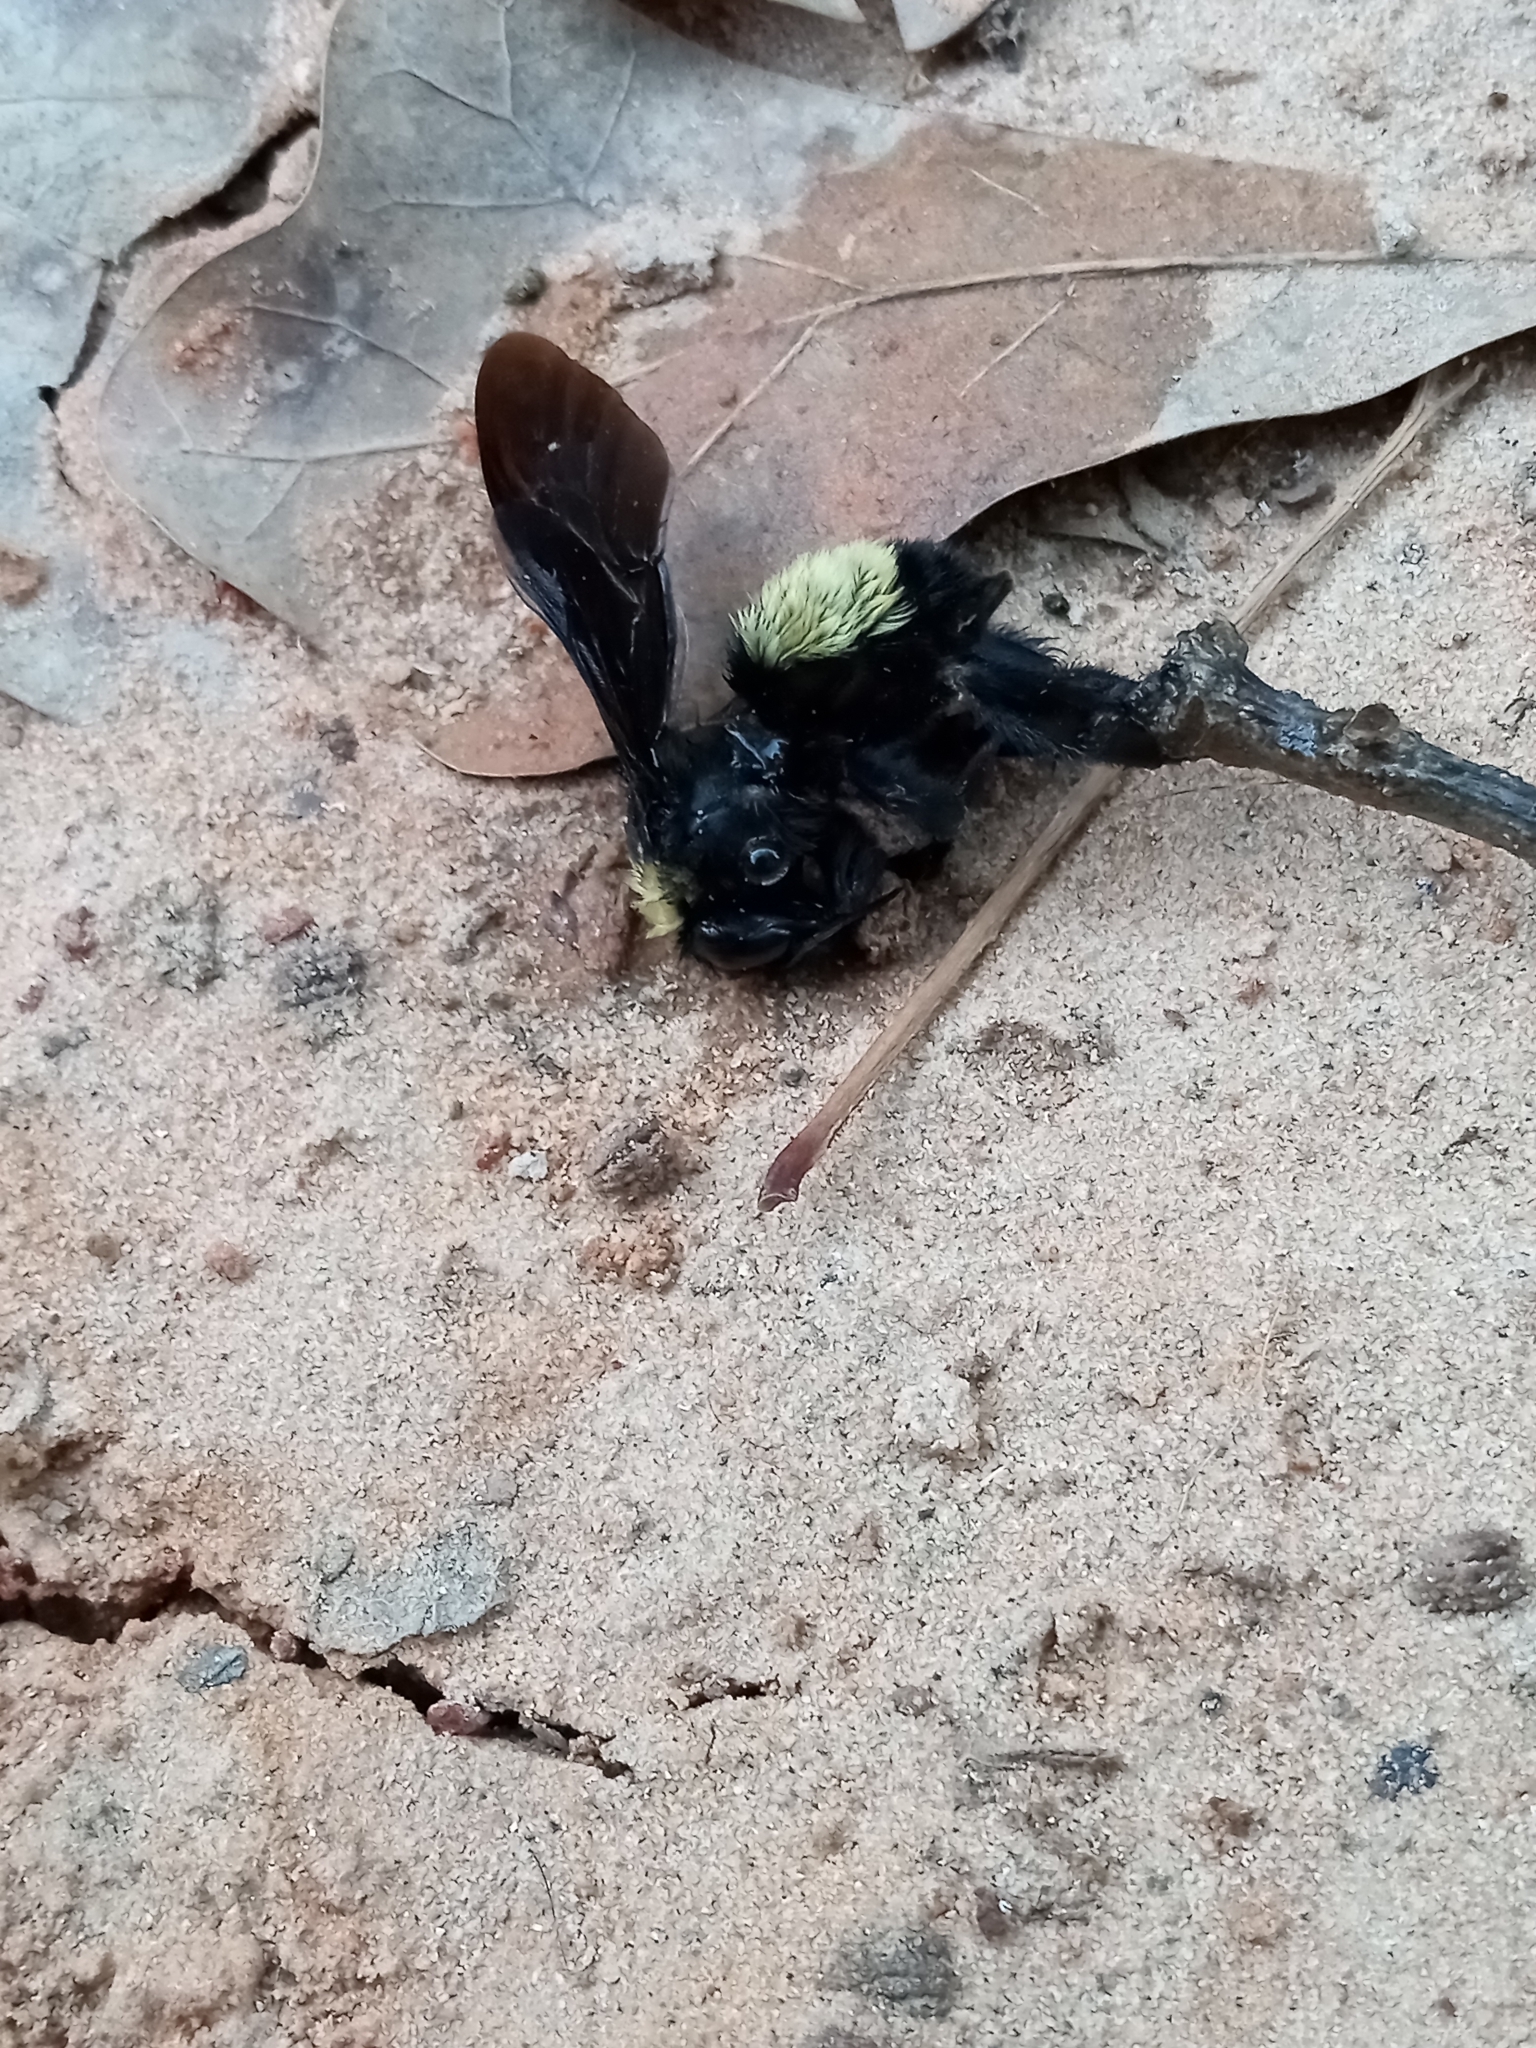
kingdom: Animalia
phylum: Arthropoda
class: Insecta
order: Hymenoptera
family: Apidae
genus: Bombus
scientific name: Bombus pensylvanicus
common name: Bumble bee
